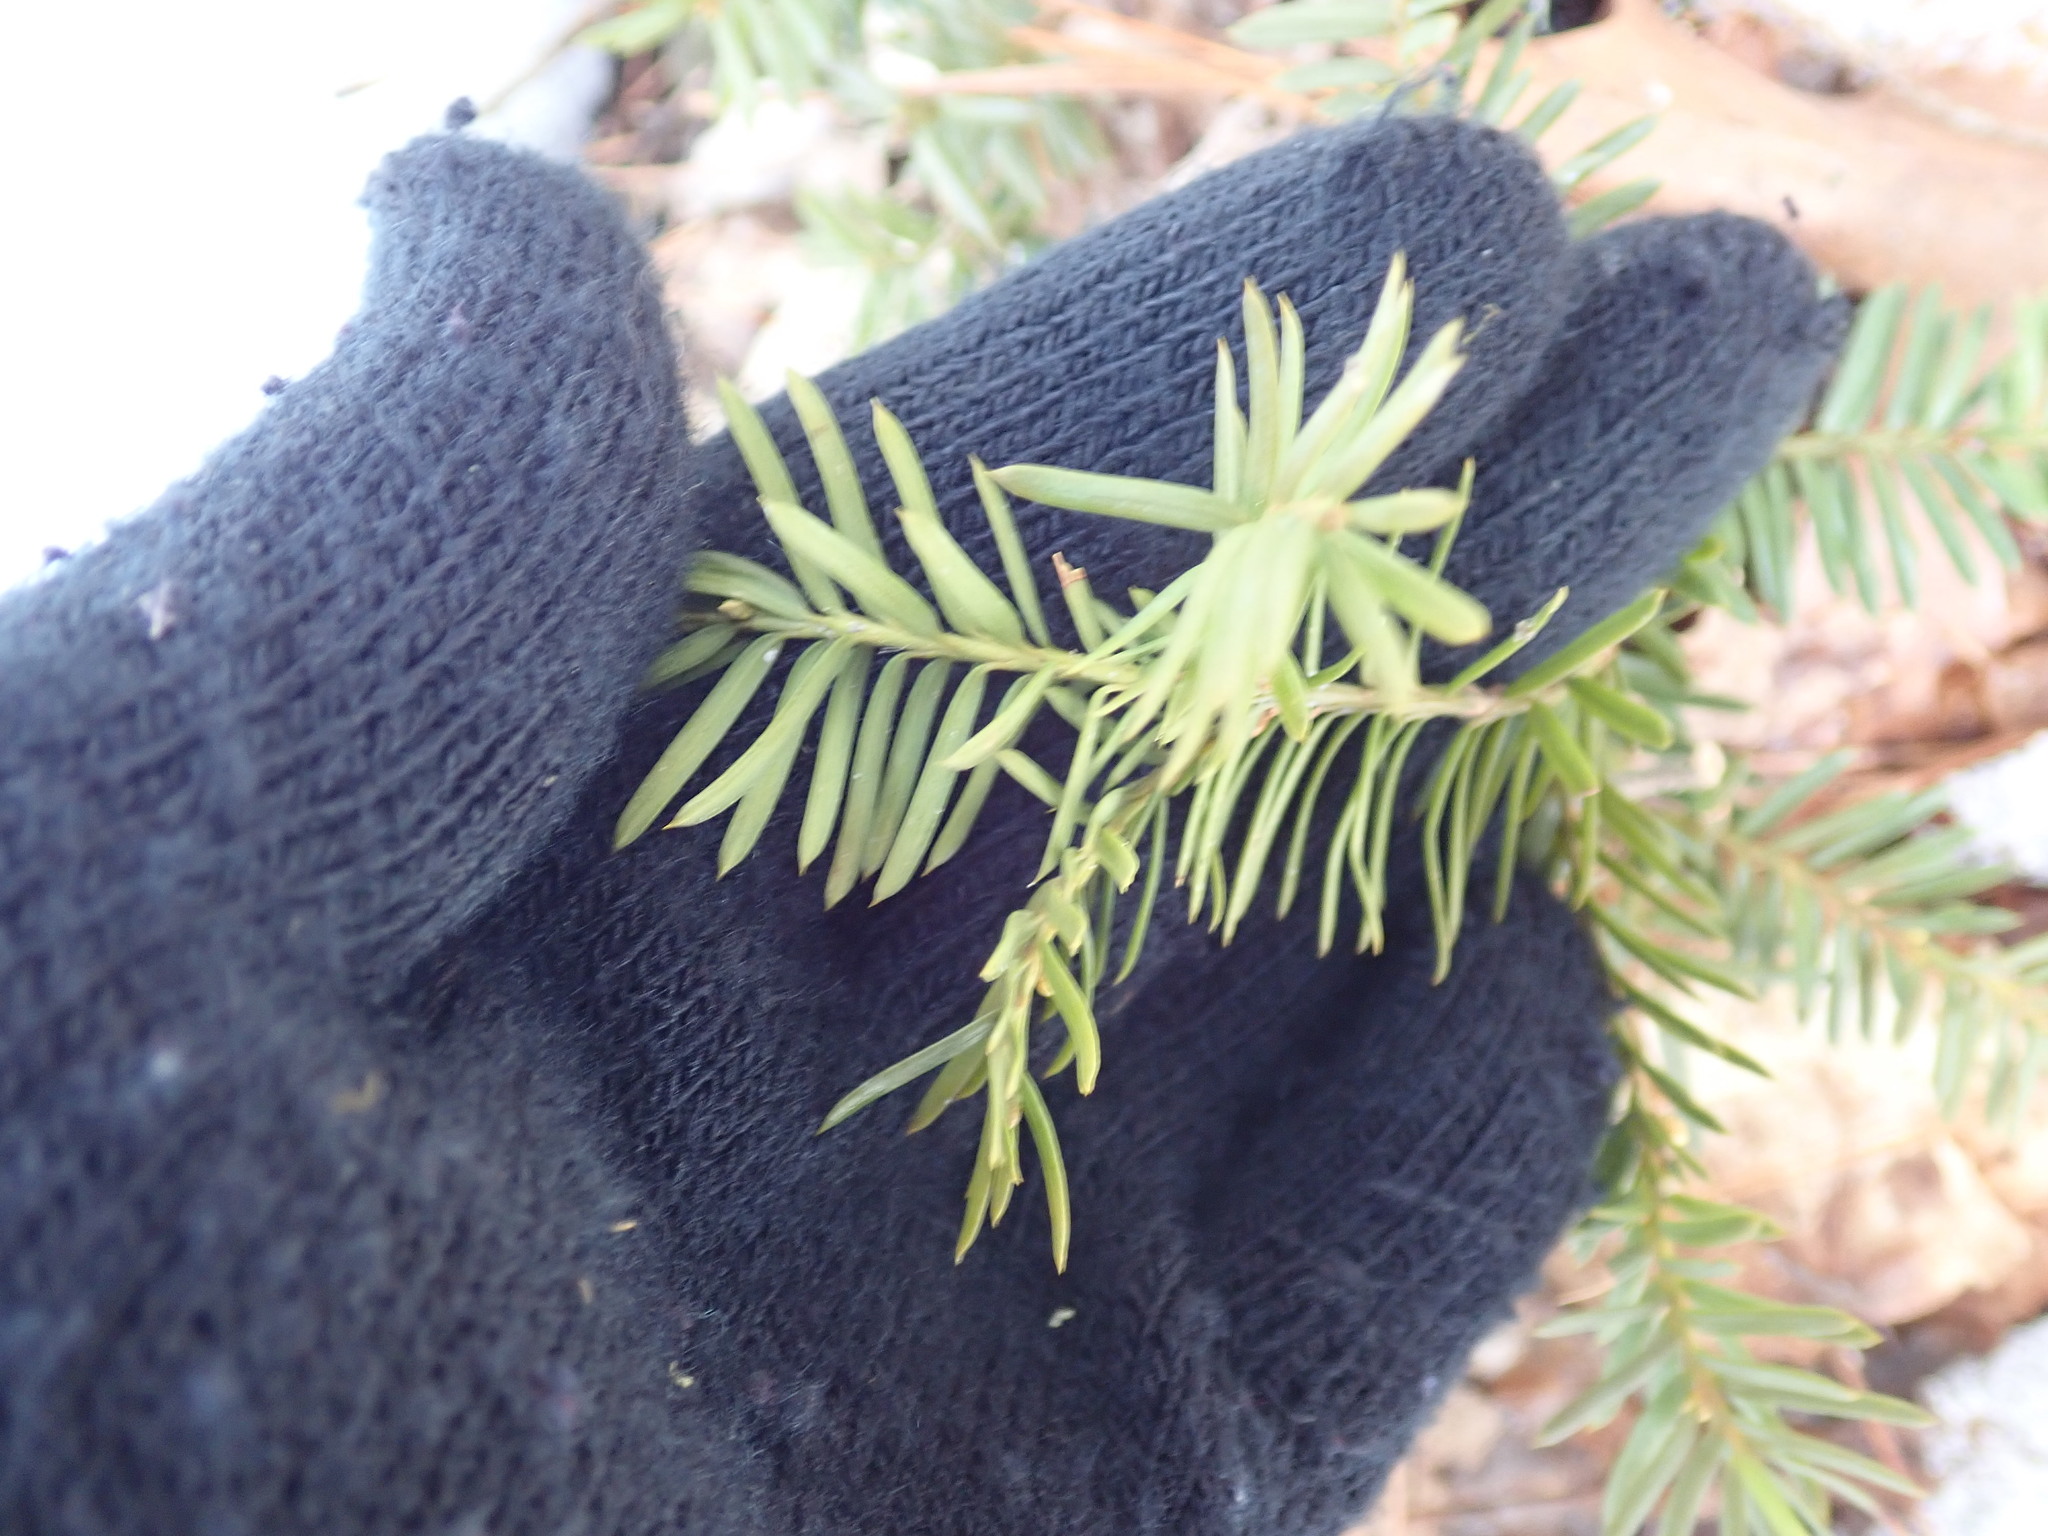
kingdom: Plantae
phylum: Tracheophyta
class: Pinopsida
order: Pinales
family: Taxaceae
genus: Taxus
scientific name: Taxus canadensis
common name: American yew
